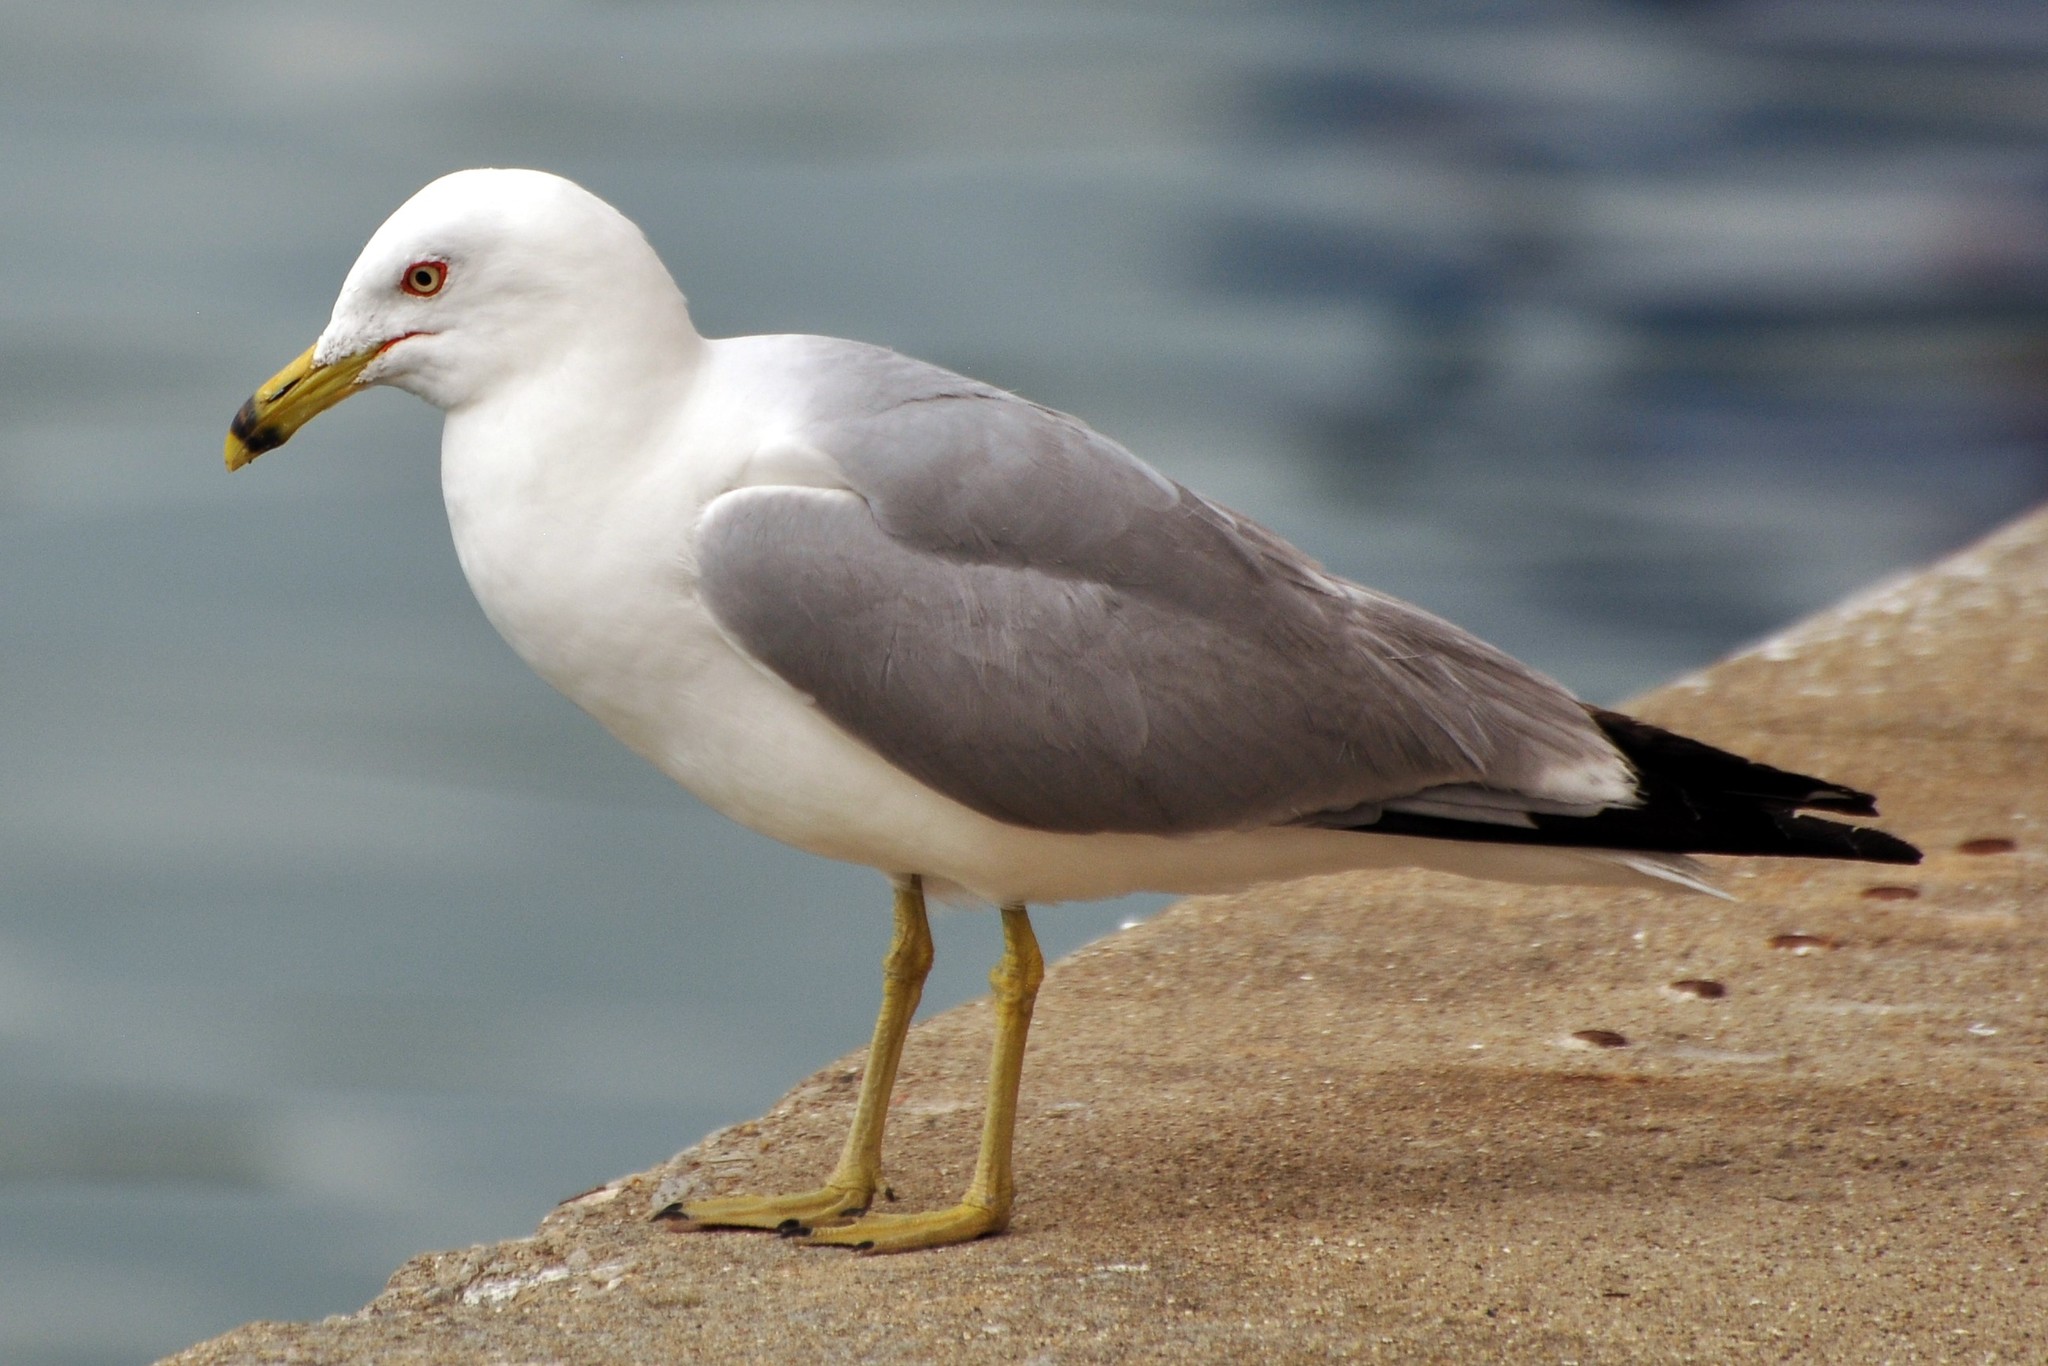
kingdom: Animalia
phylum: Chordata
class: Aves
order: Charadriiformes
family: Laridae
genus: Larus
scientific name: Larus delawarensis
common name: Ring-billed gull
